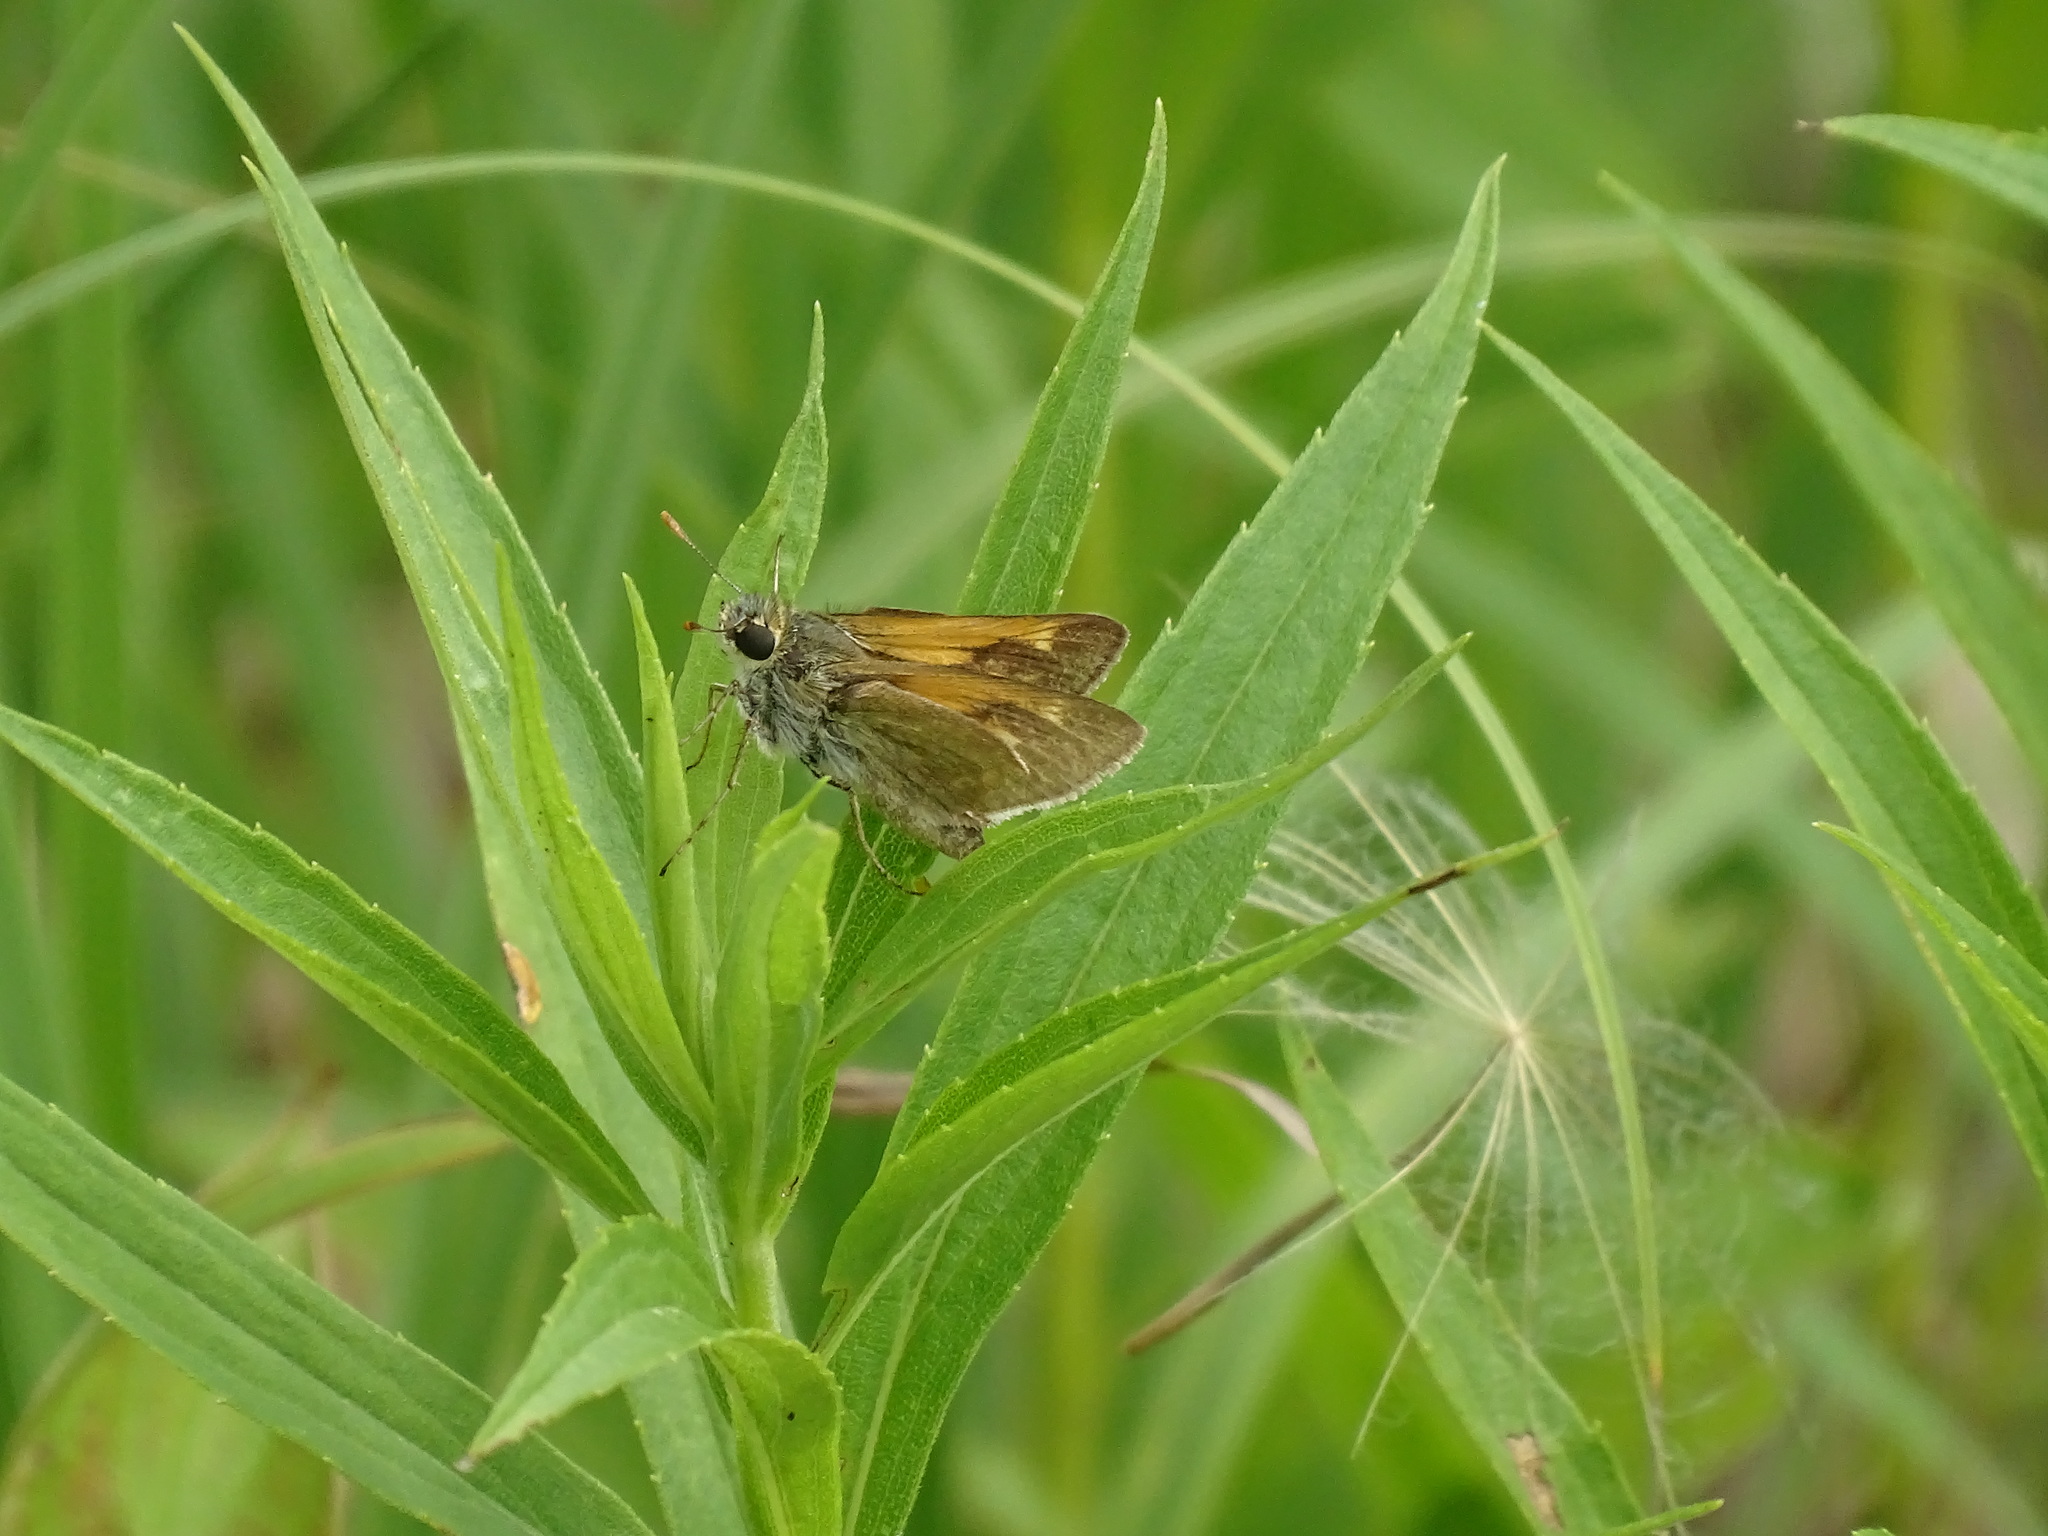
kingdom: Animalia
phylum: Arthropoda
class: Insecta
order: Lepidoptera
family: Hesperiidae
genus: Polites
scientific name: Polites themistocles
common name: Tawny-edged skipper
